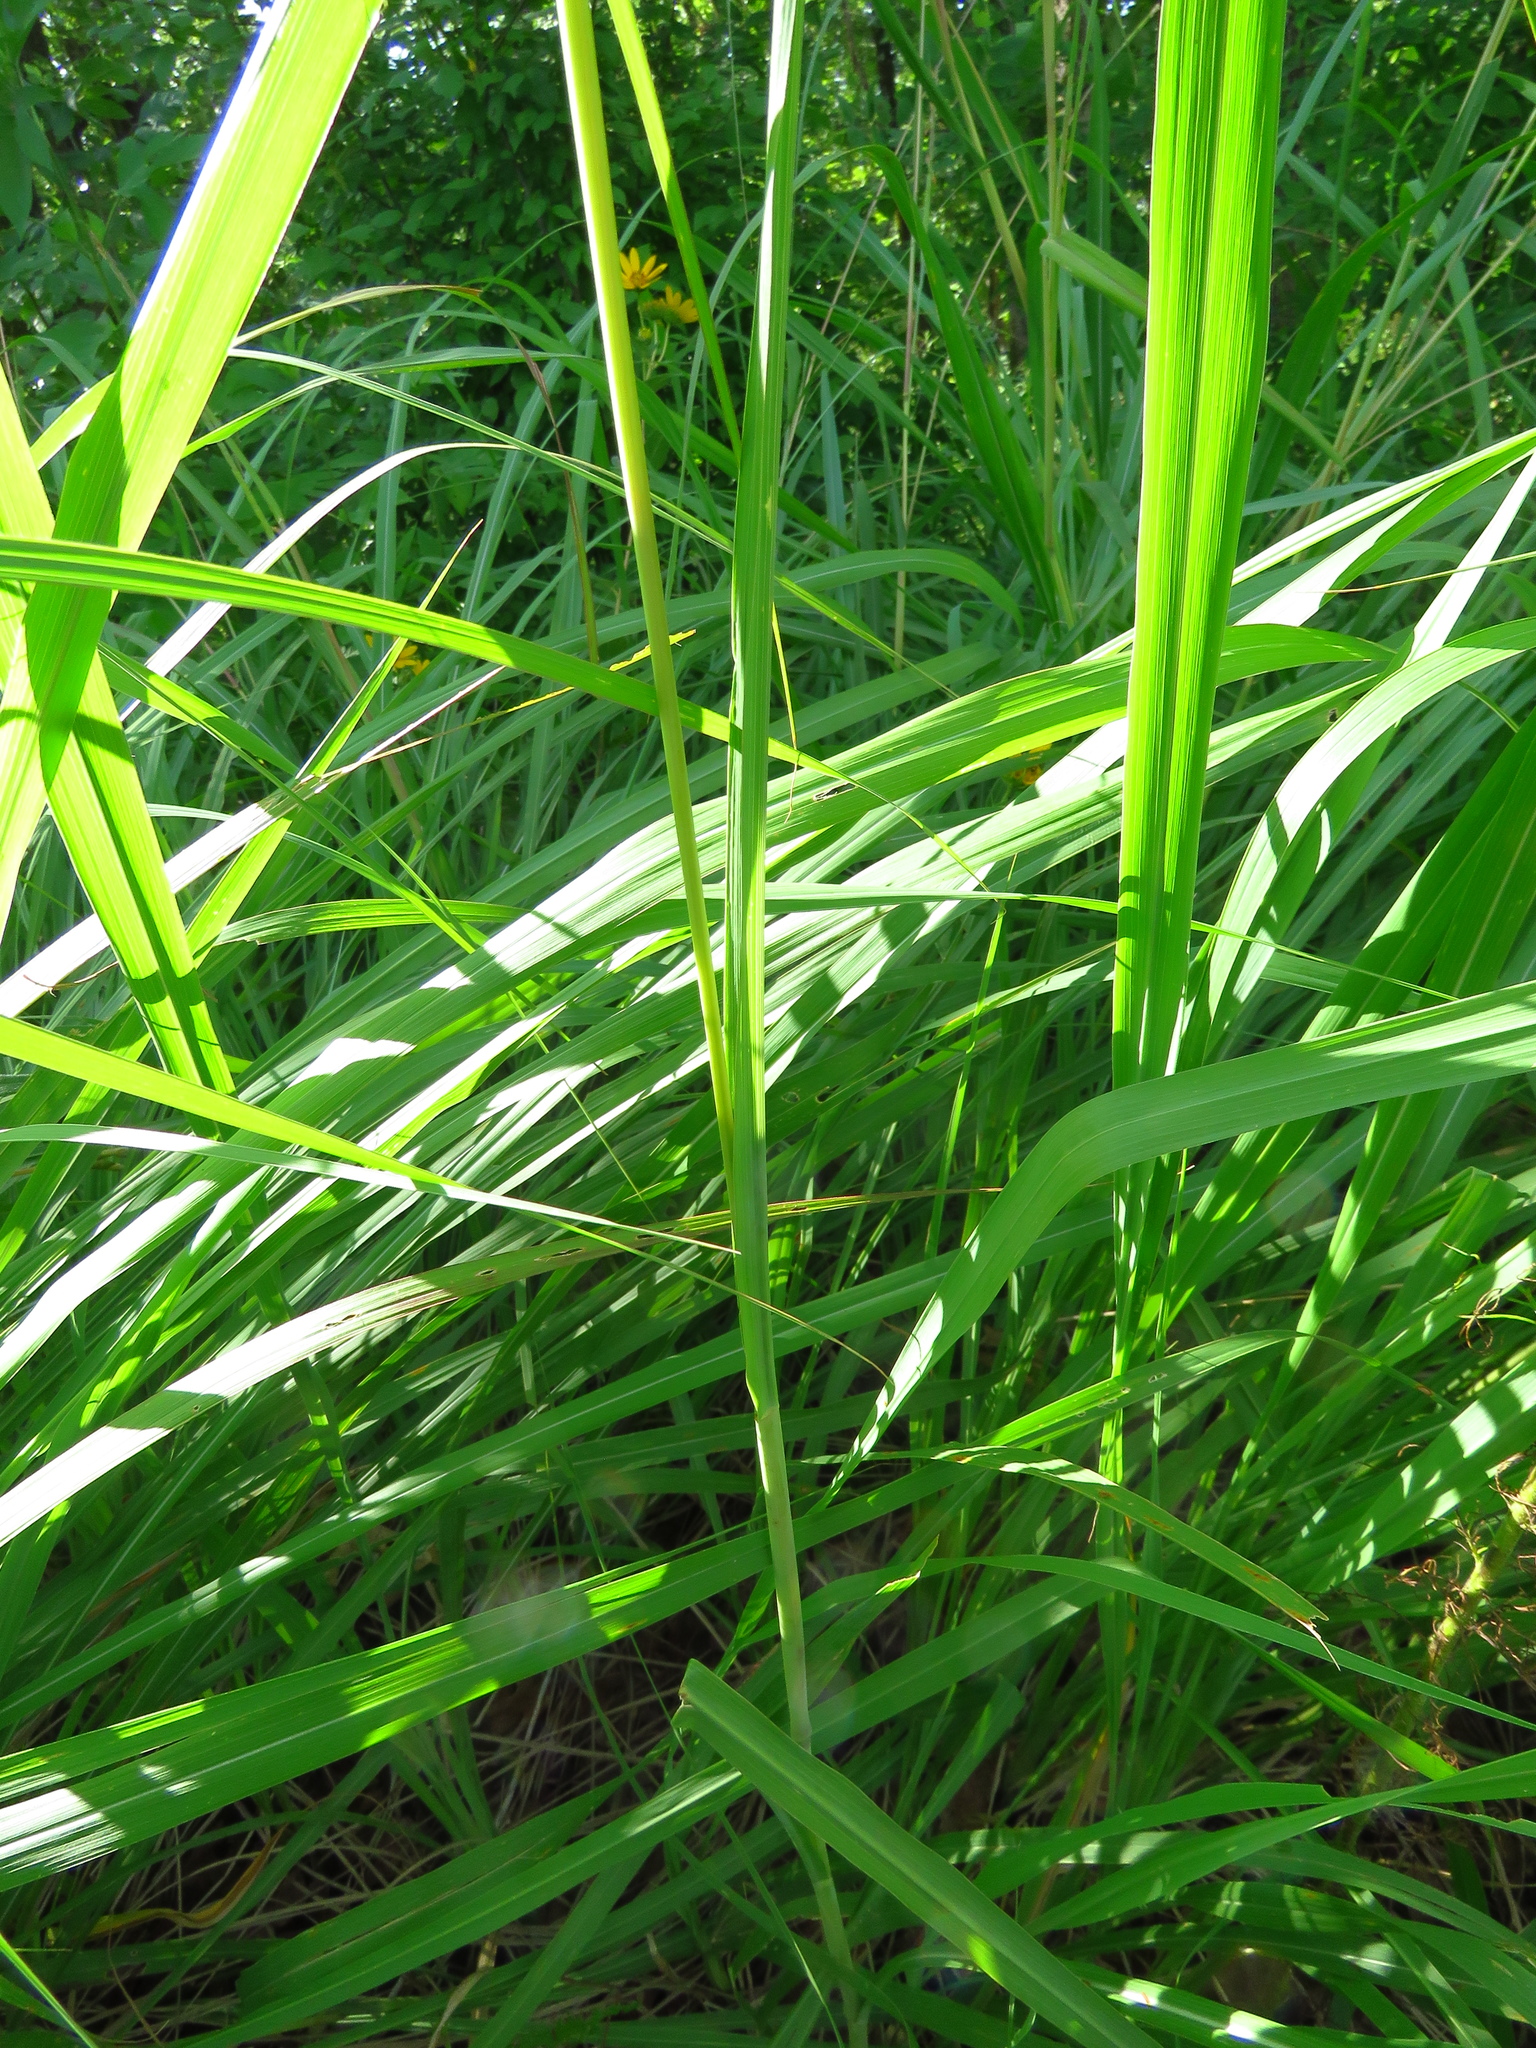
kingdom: Plantae
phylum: Tracheophyta
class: Liliopsida
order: Poales
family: Poaceae
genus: Tripsacum
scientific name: Tripsacum dactyloides
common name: Buffalo-grass
